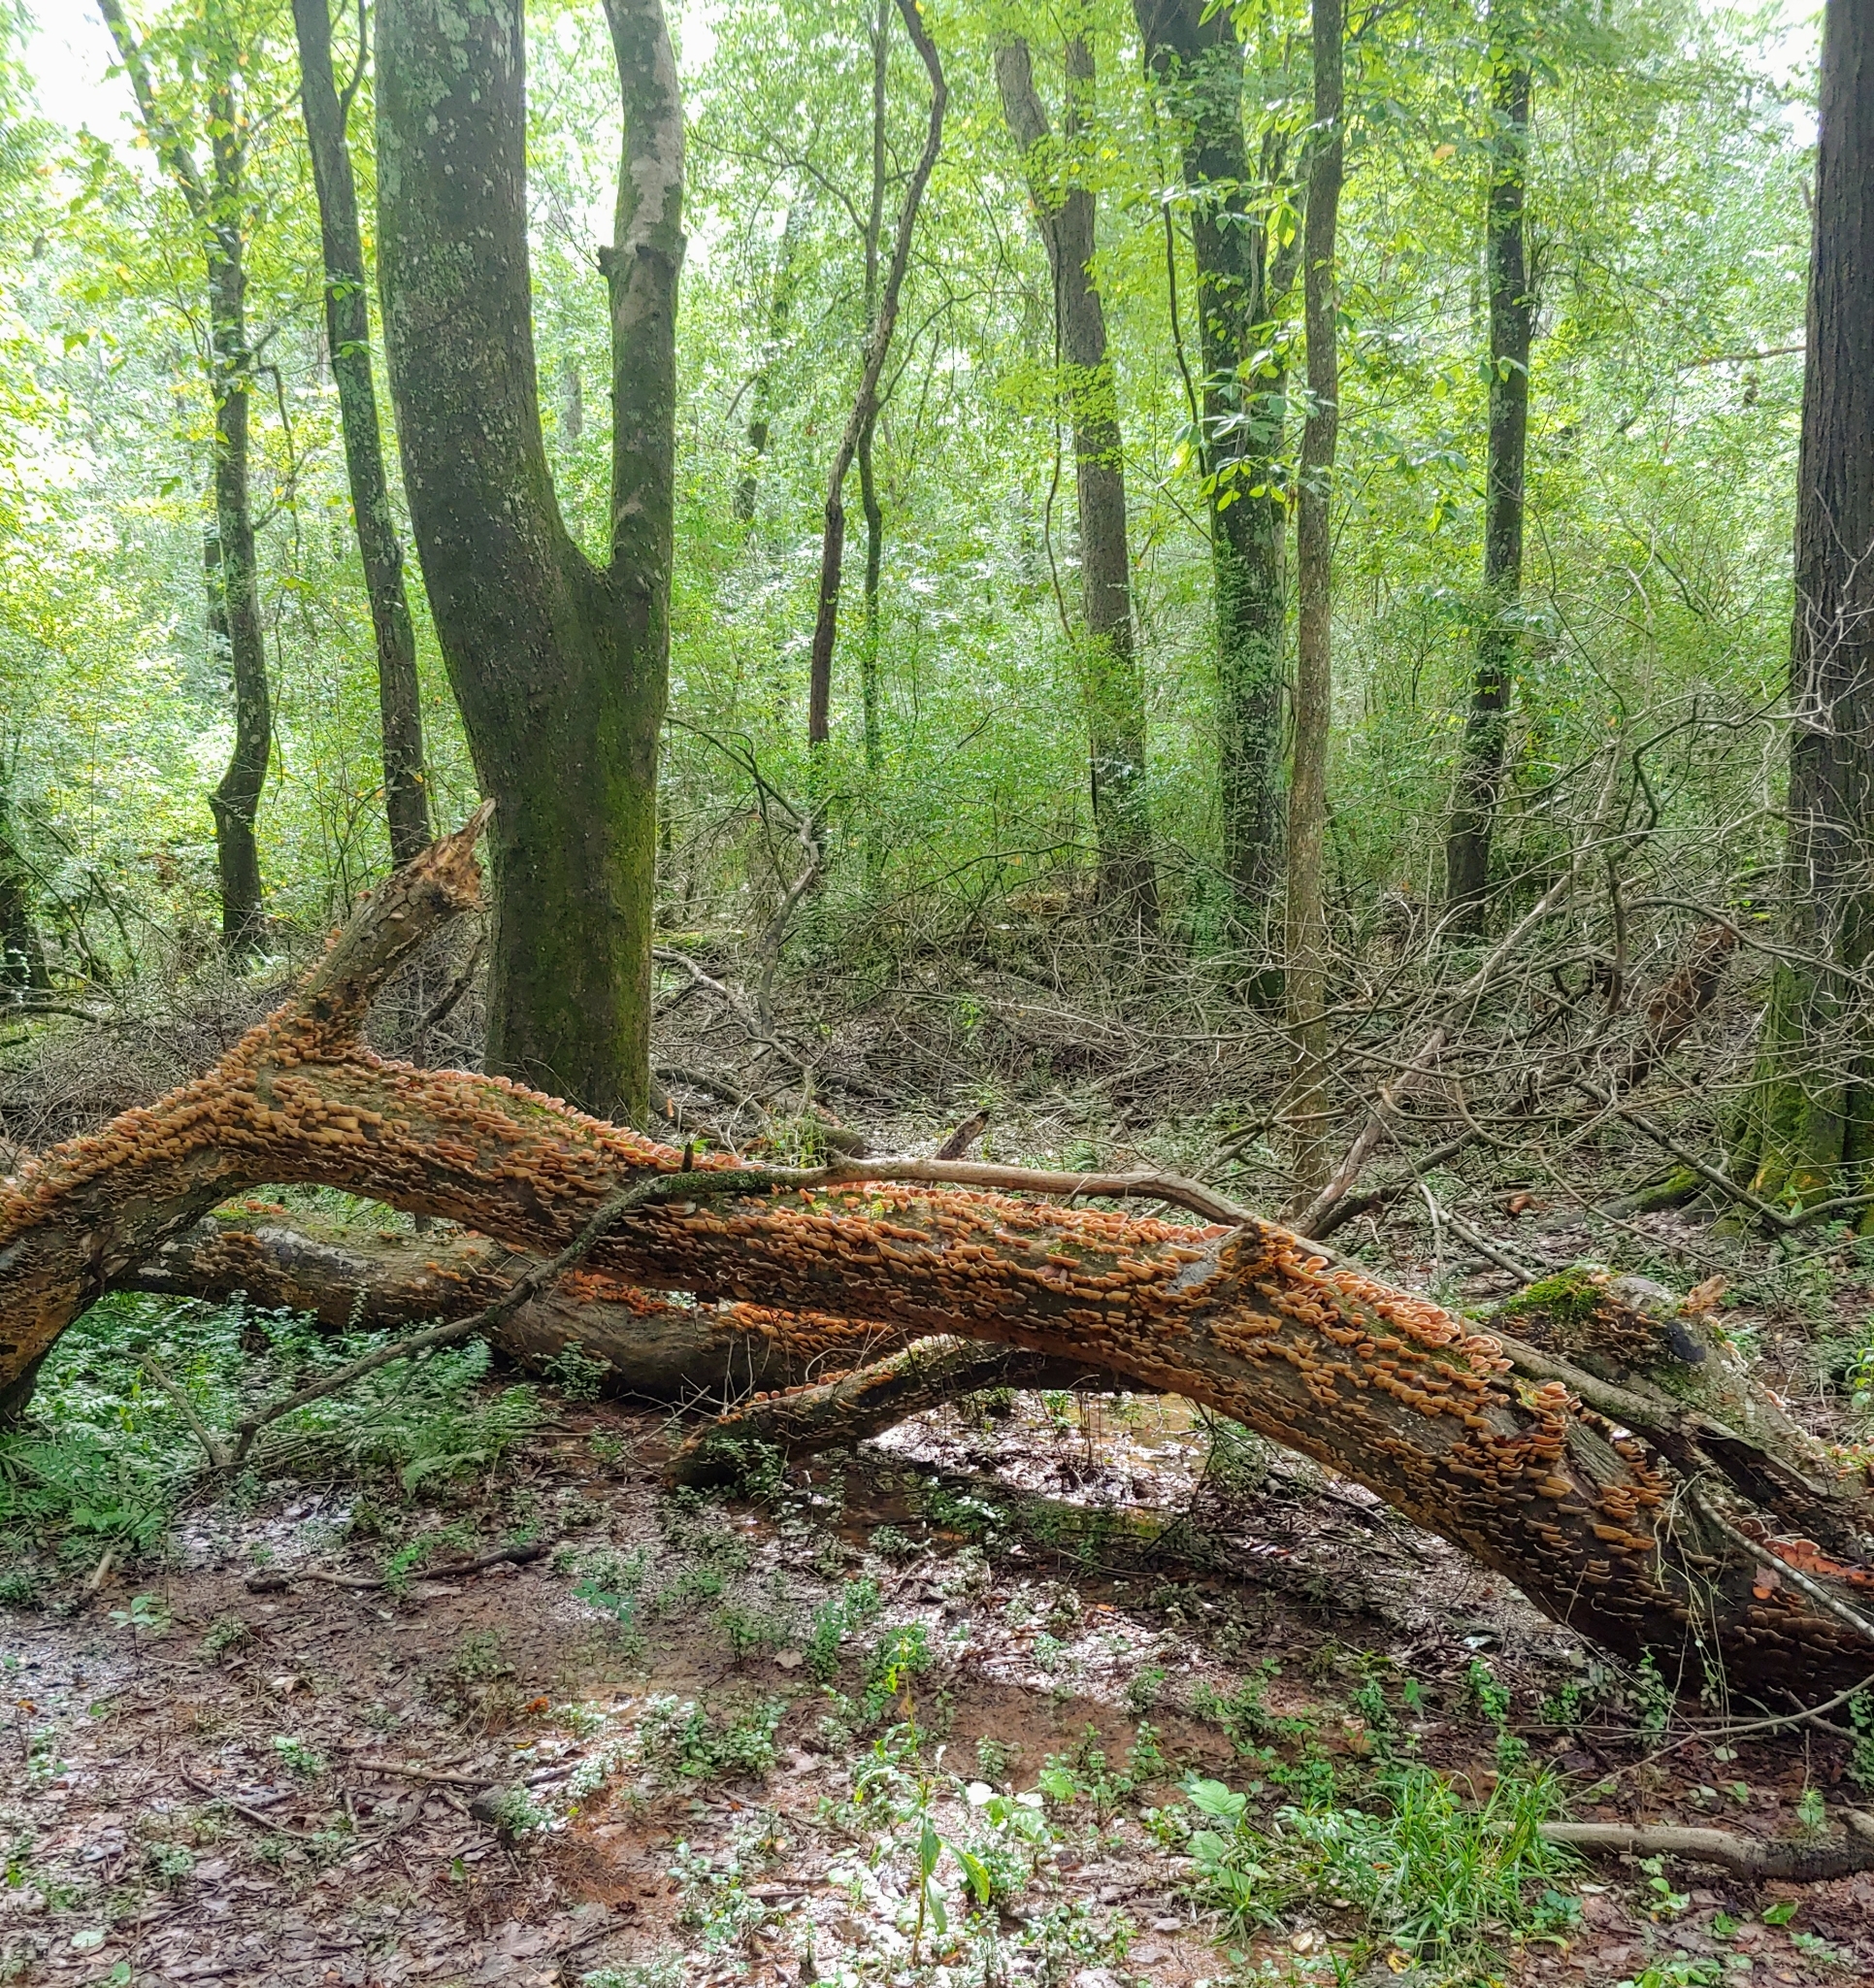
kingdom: Fungi
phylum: Basidiomycota
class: Agaricomycetes
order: Russulales
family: Stereaceae
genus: Stereum
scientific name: Stereum ostrea
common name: False turkeytail
